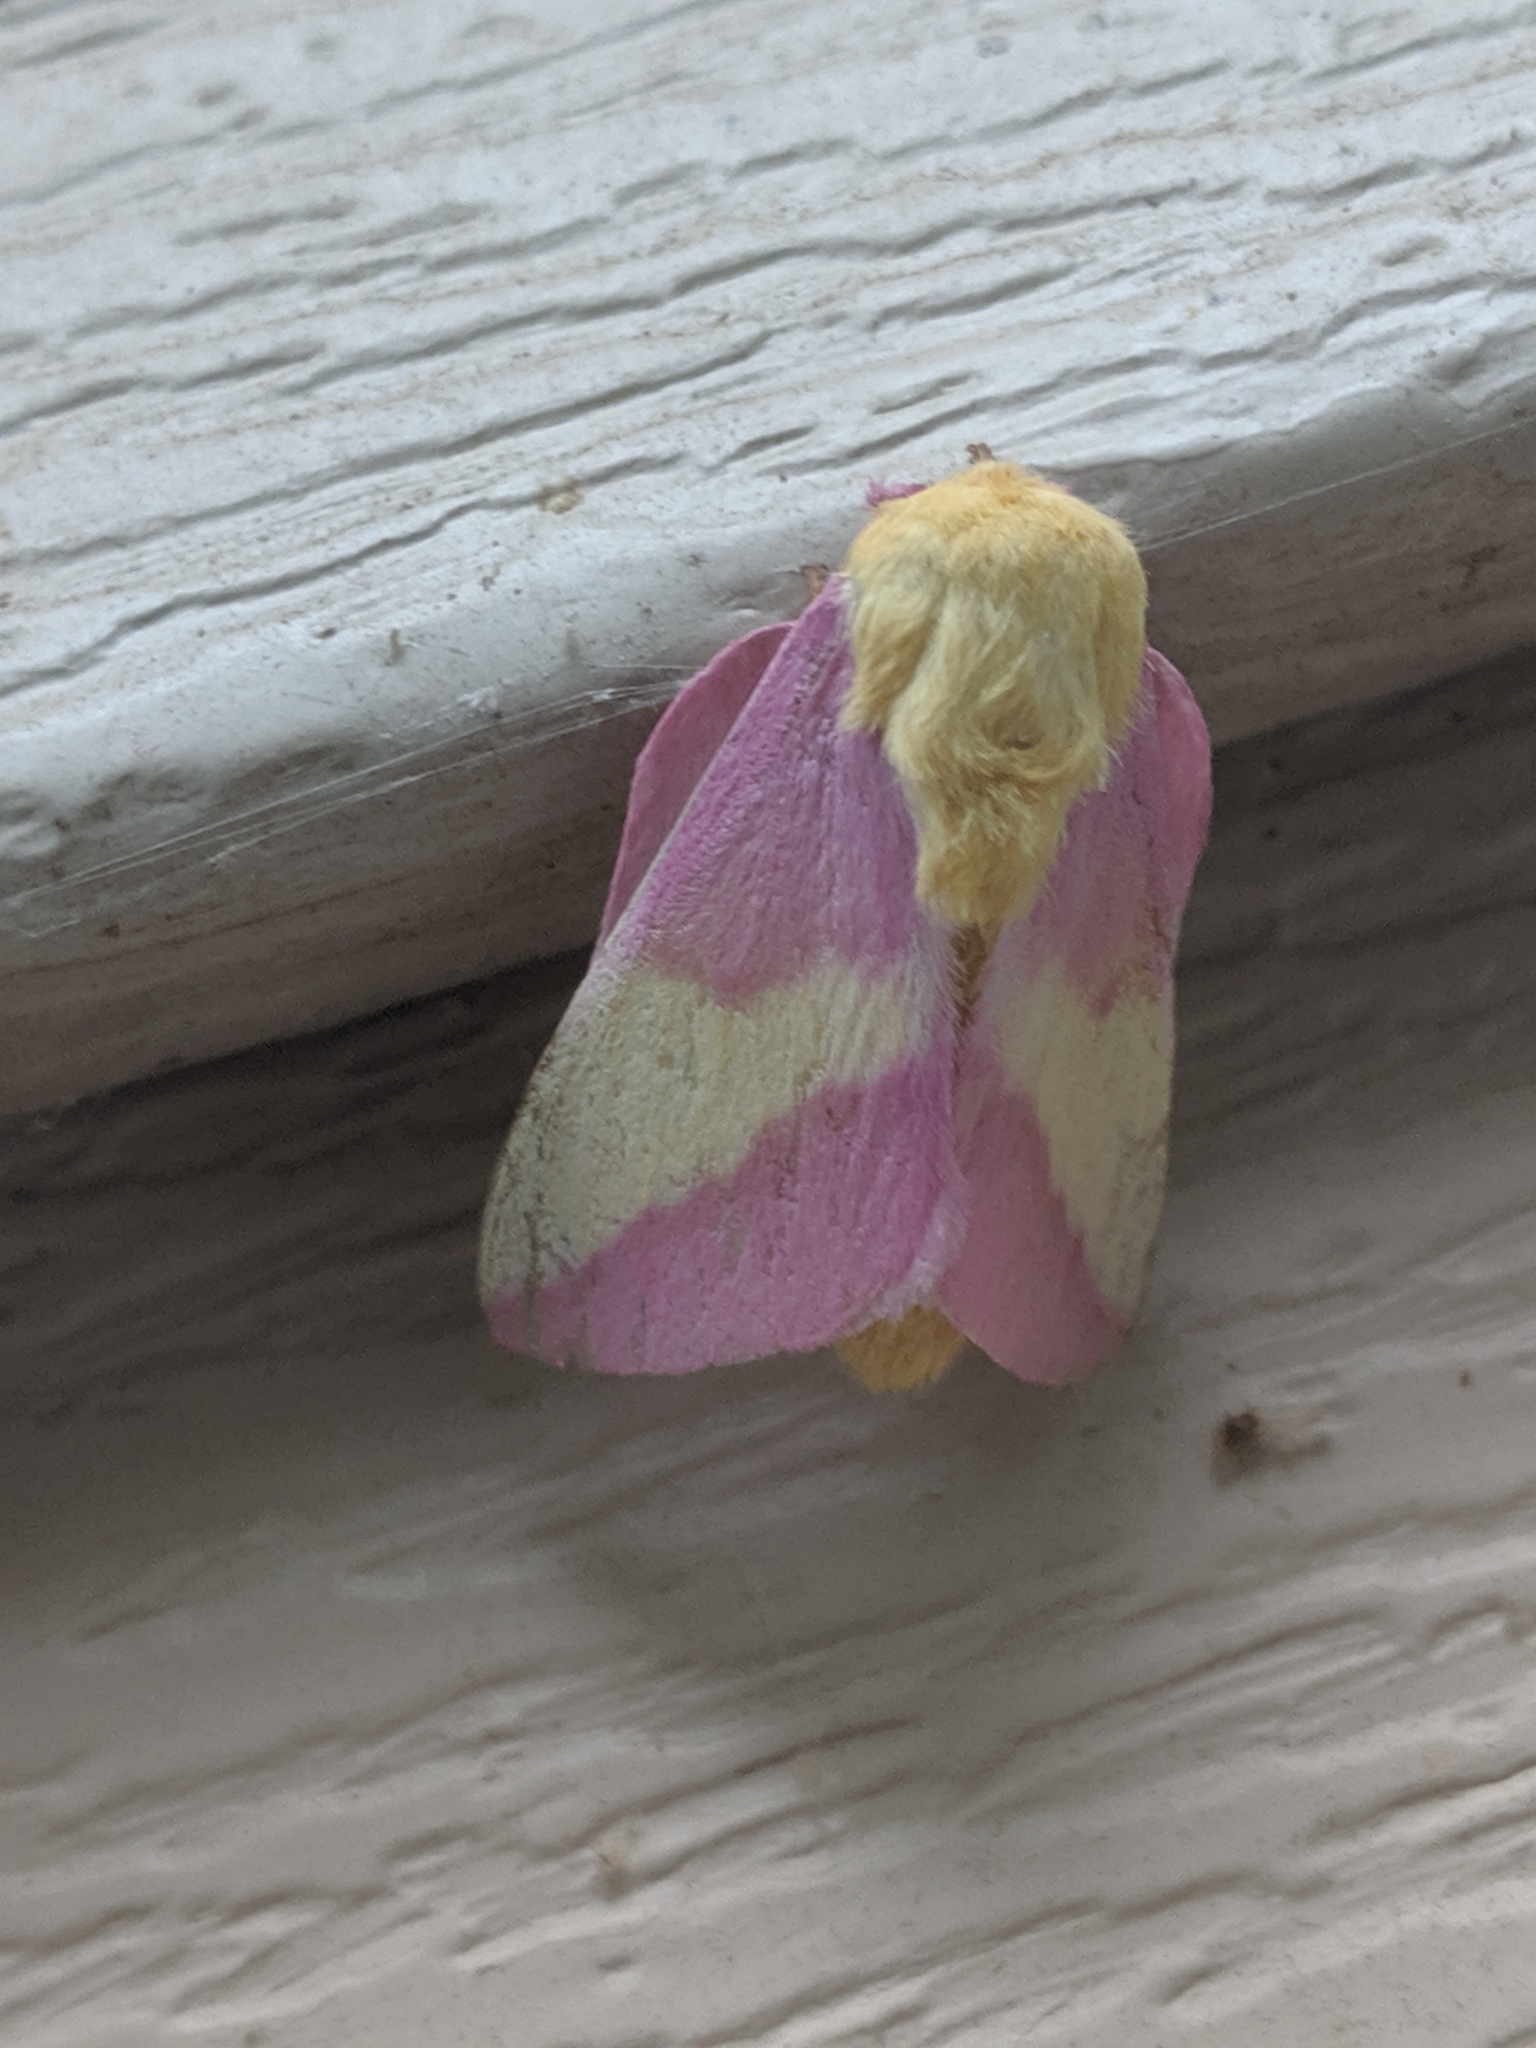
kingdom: Animalia
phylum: Arthropoda
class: Insecta
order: Lepidoptera
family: Saturniidae
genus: Dryocampa
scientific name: Dryocampa rubicunda
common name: Rosy maple moth
